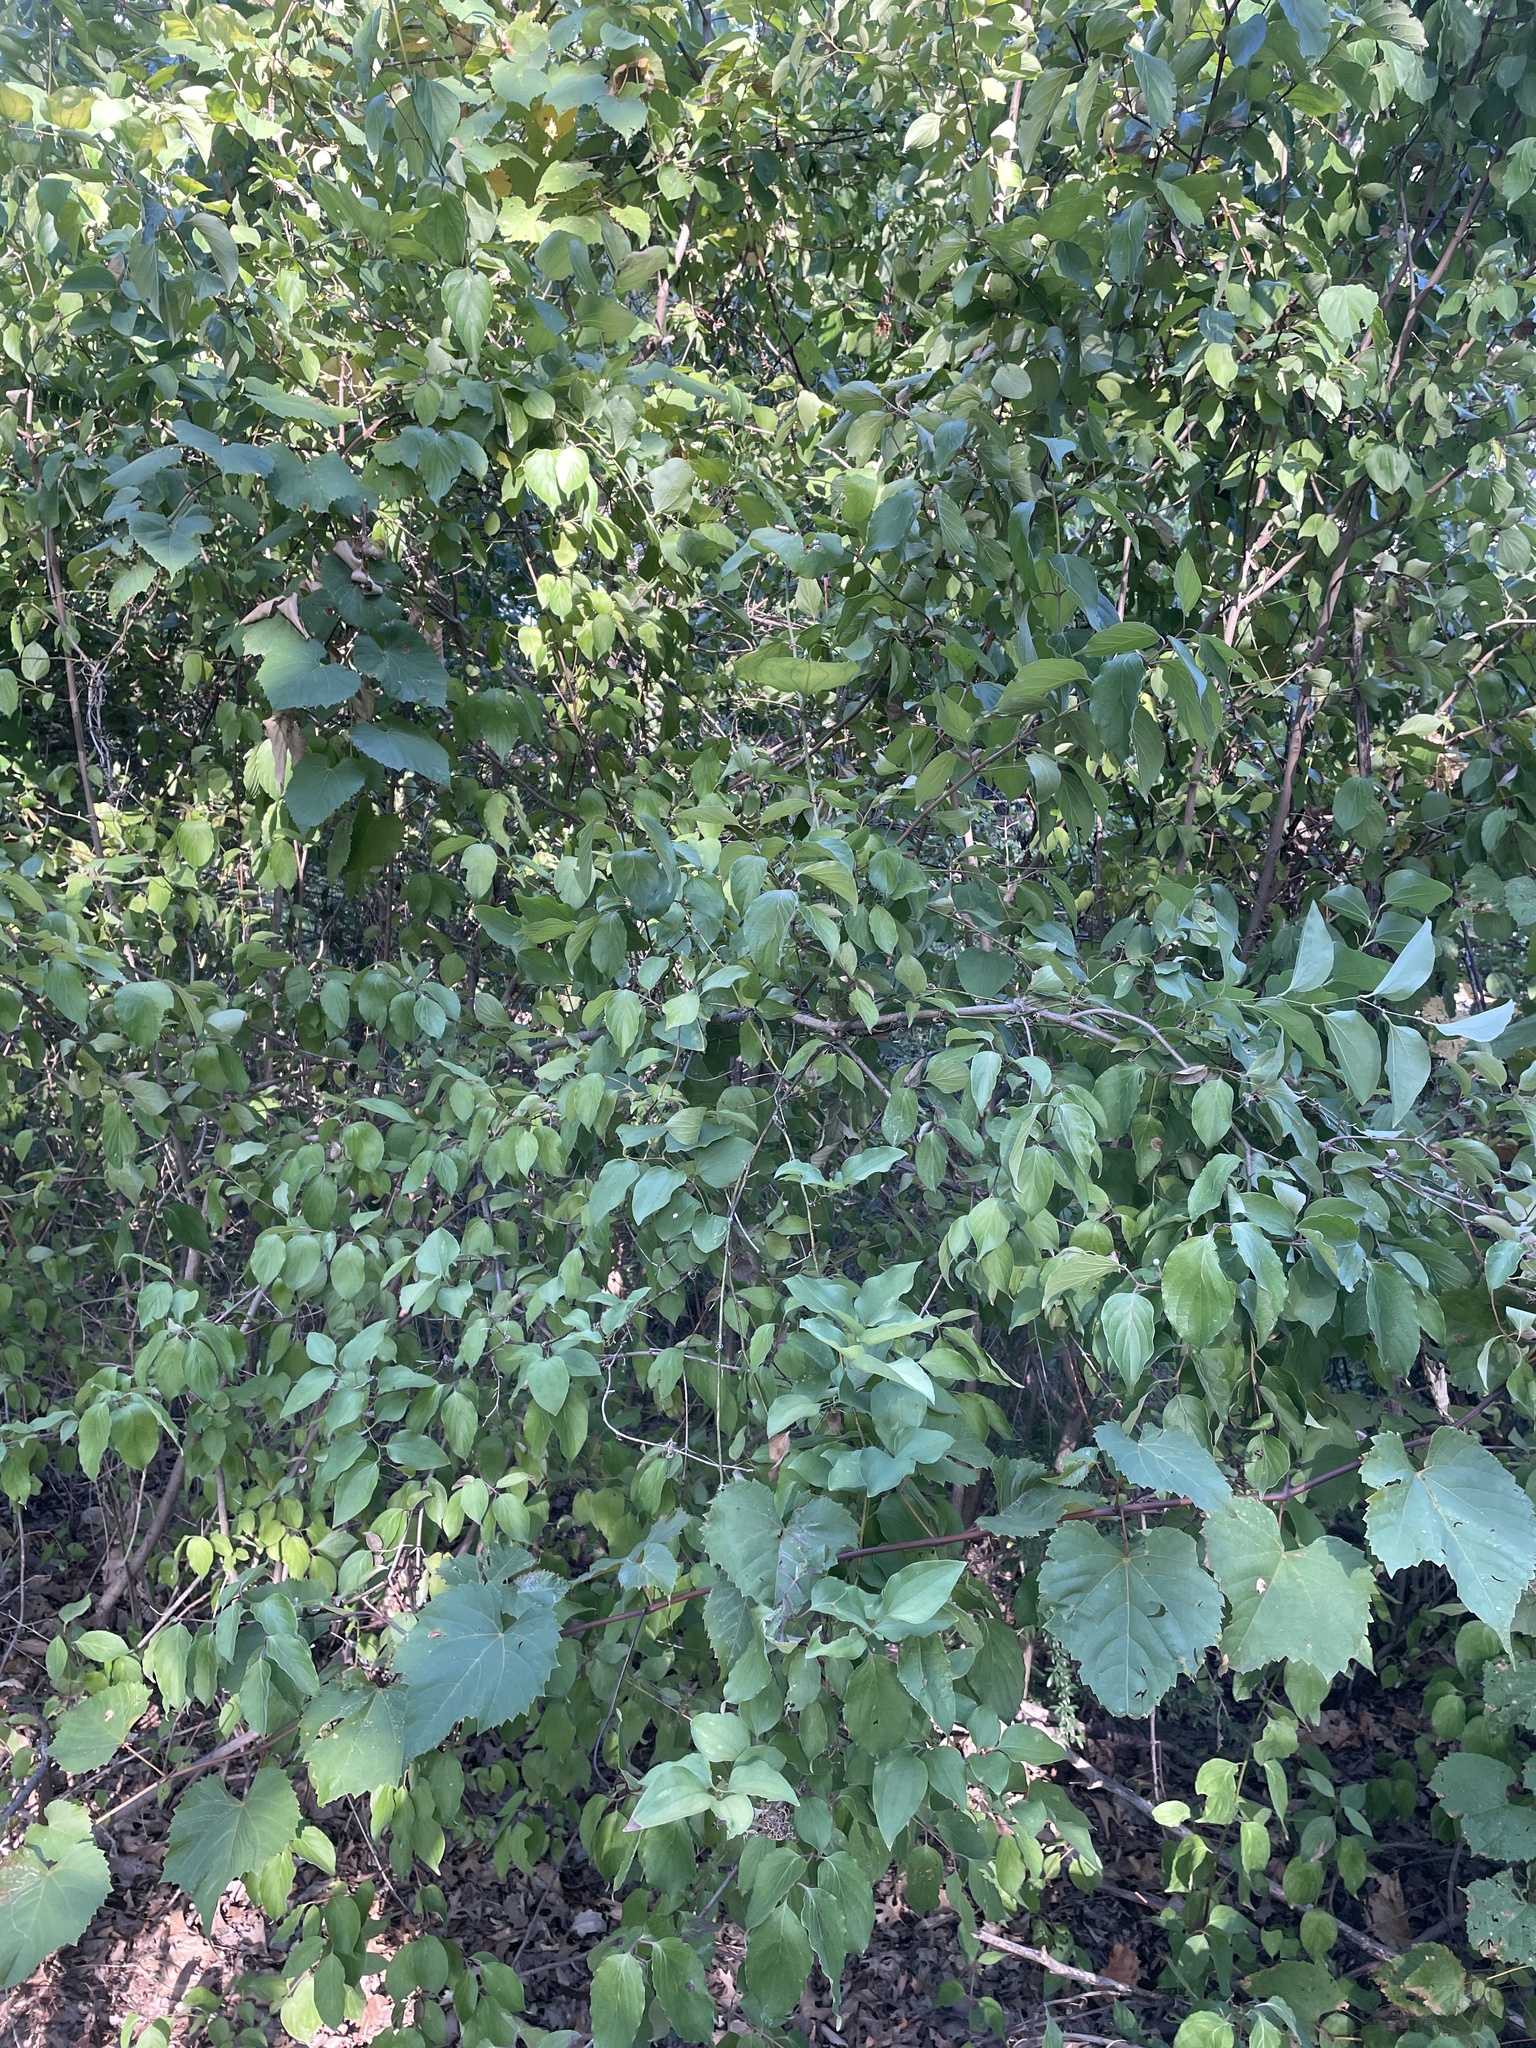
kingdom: Plantae
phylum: Tracheophyta
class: Magnoliopsida
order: Cornales
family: Cornaceae
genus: Cornus
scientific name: Cornus drummondii
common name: Rough-leaf dogwood
